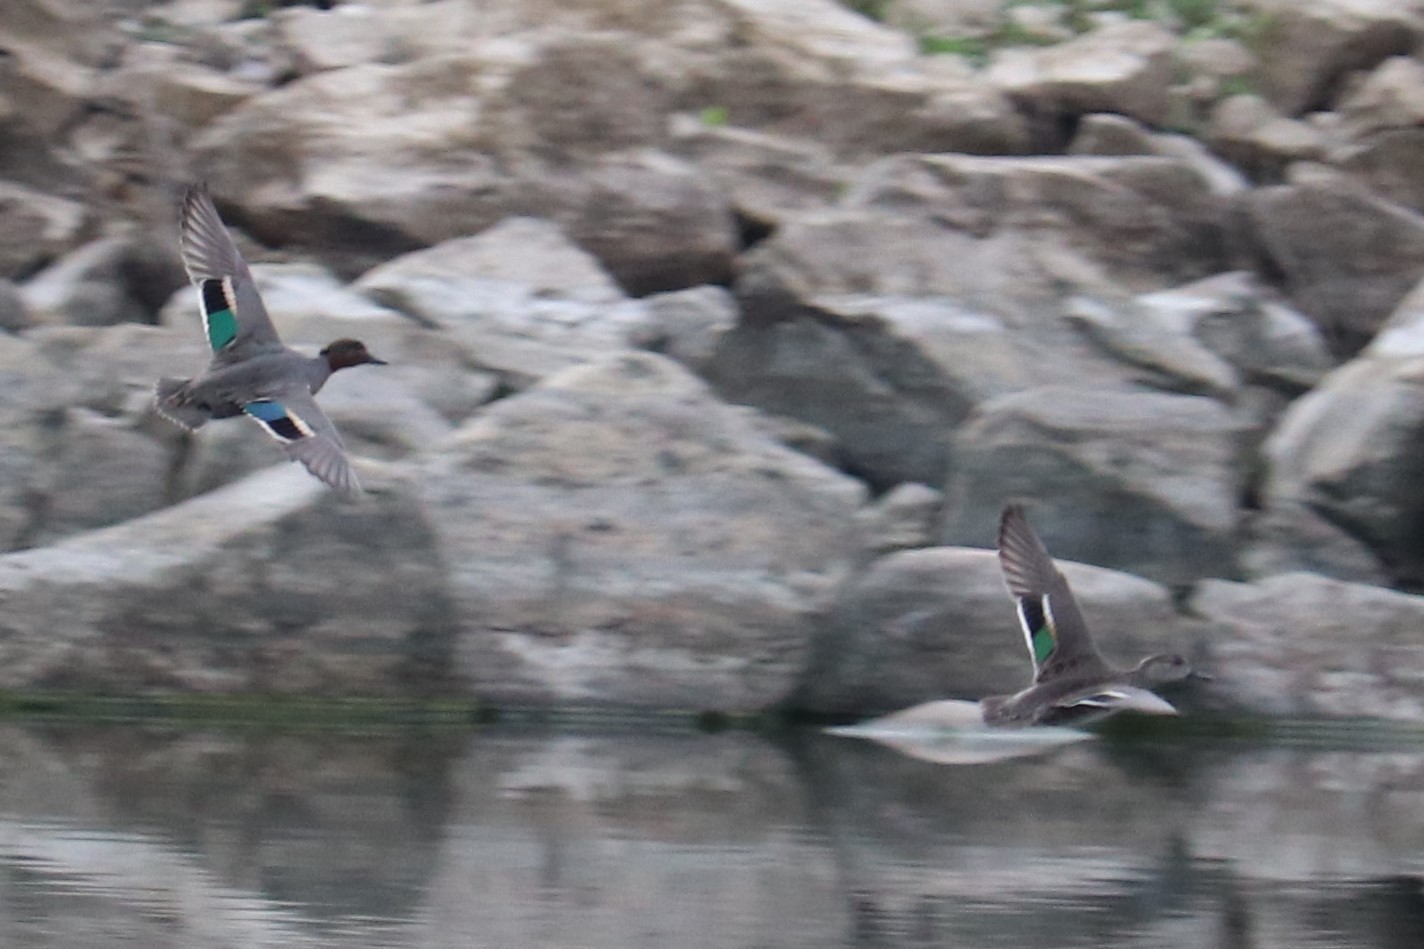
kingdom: Animalia
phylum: Chordata
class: Aves
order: Anseriformes
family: Anatidae
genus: Anas
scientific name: Anas crecca
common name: Eurasian teal
